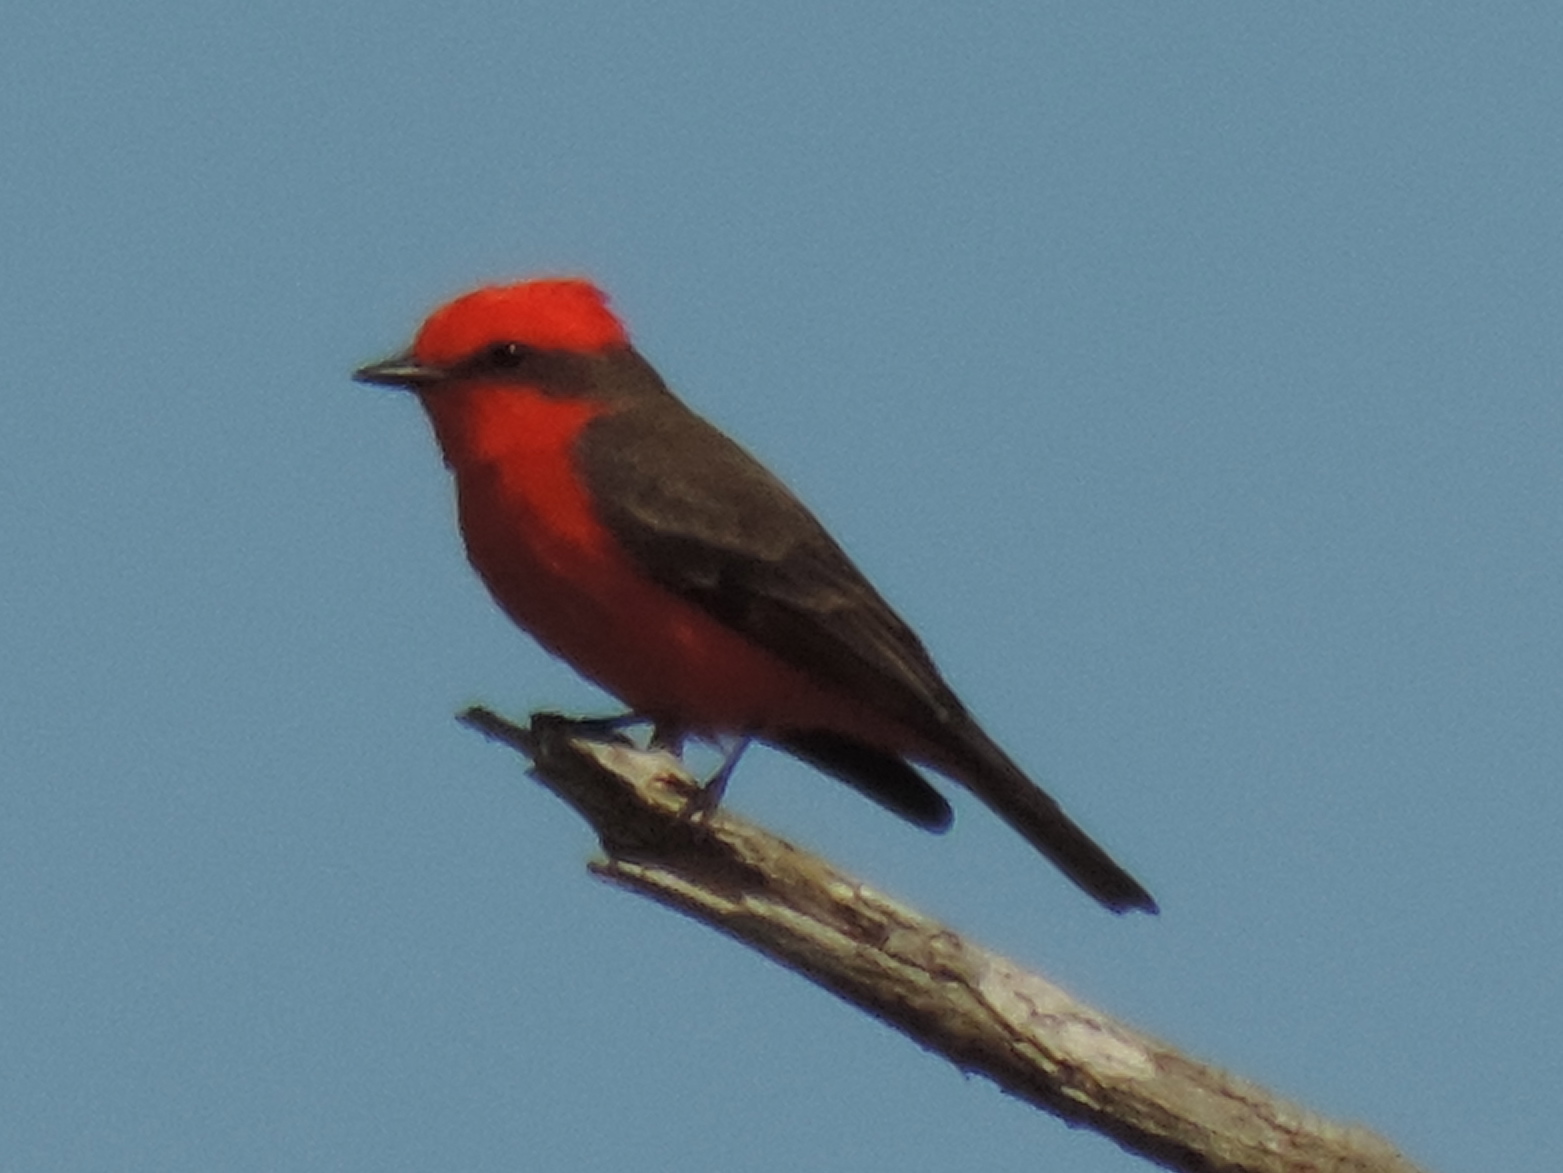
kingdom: Animalia
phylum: Chordata
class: Aves
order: Passeriformes
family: Tyrannidae
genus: Pyrocephalus
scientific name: Pyrocephalus rubinus
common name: Vermilion flycatcher
